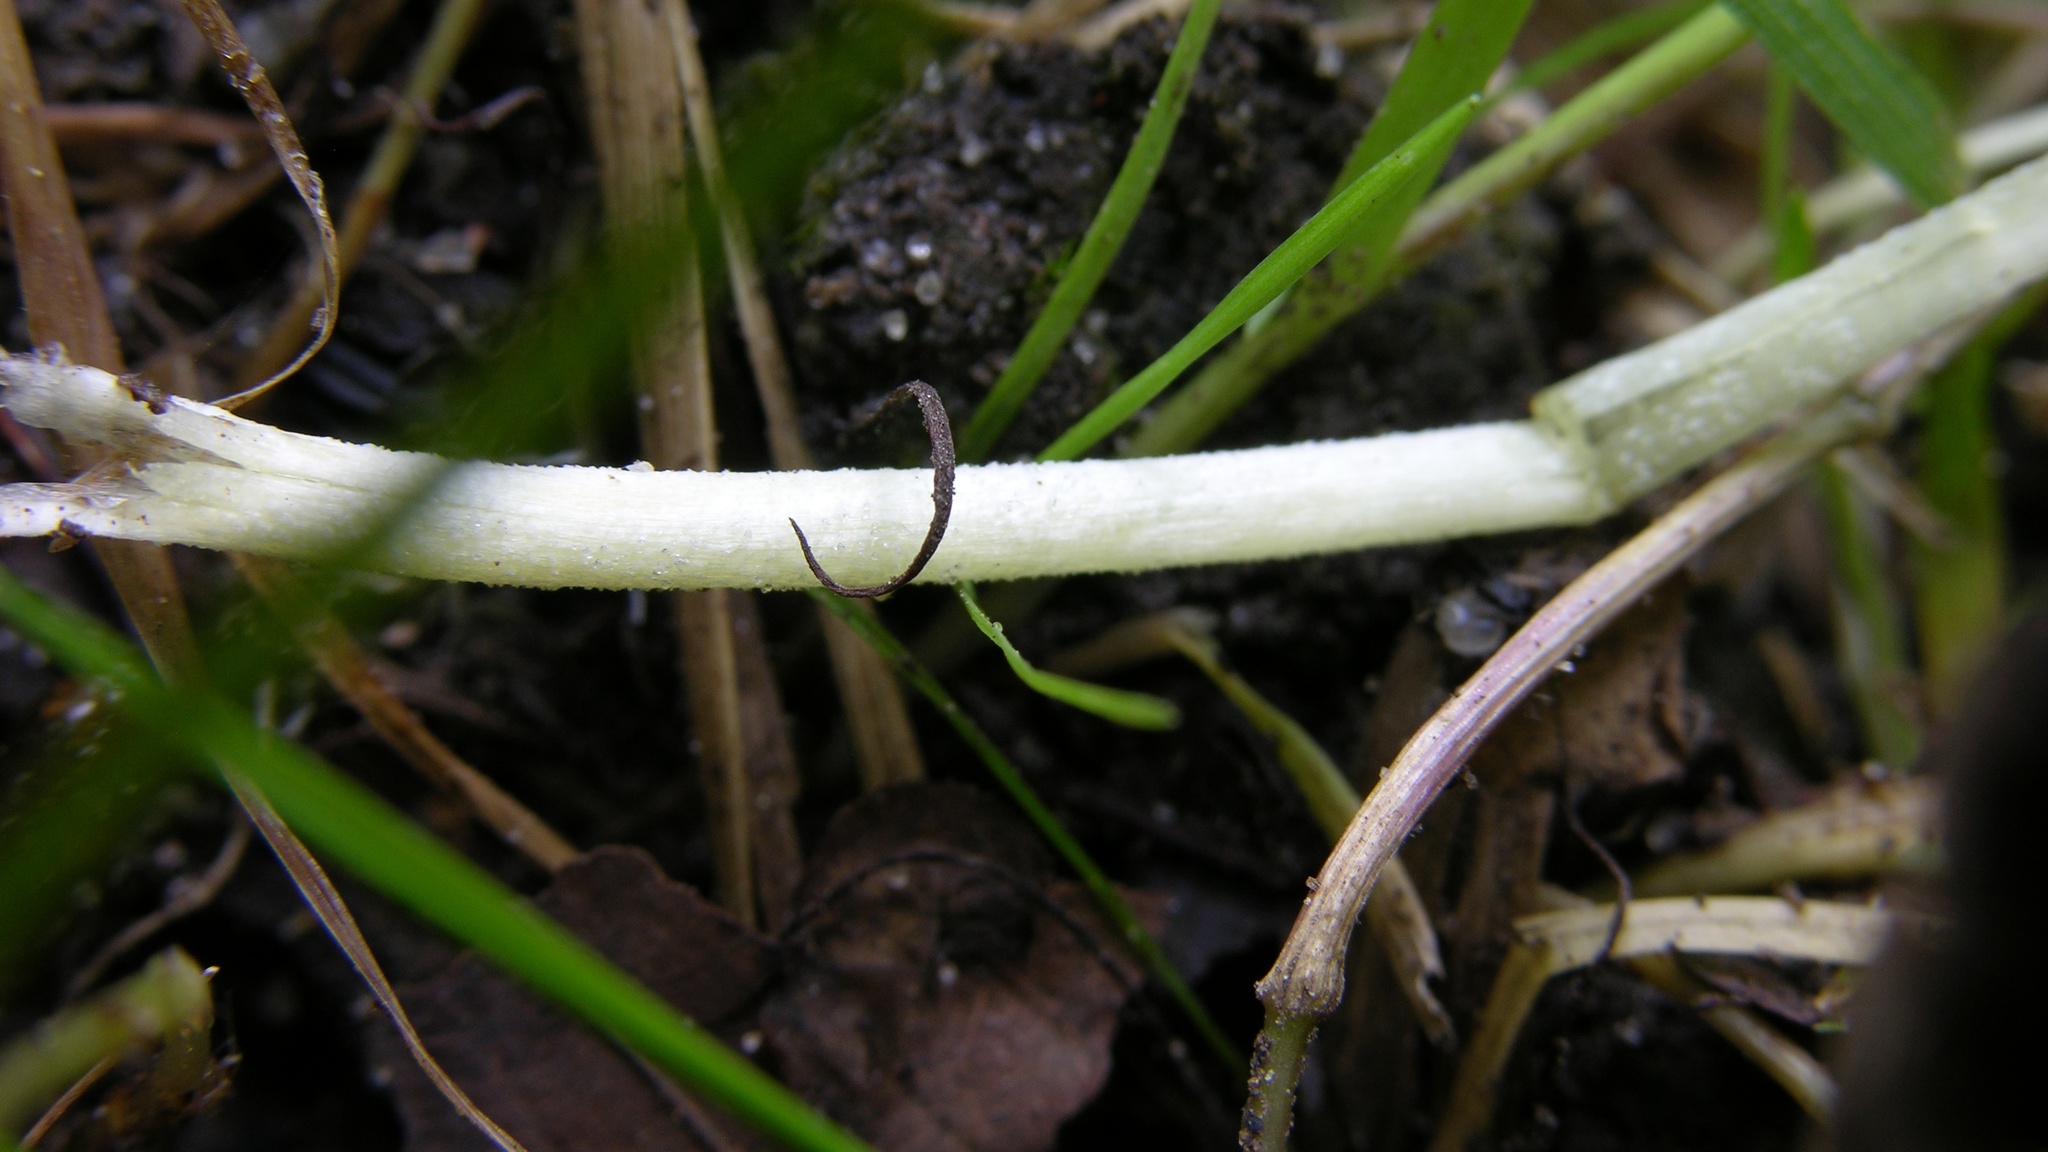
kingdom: Fungi
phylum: Basidiomycota
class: Agaricomycetes
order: Agaricales
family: Bolbitiaceae
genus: Bolbitius
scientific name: Bolbitius titubans
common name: Yellow fieldcap
